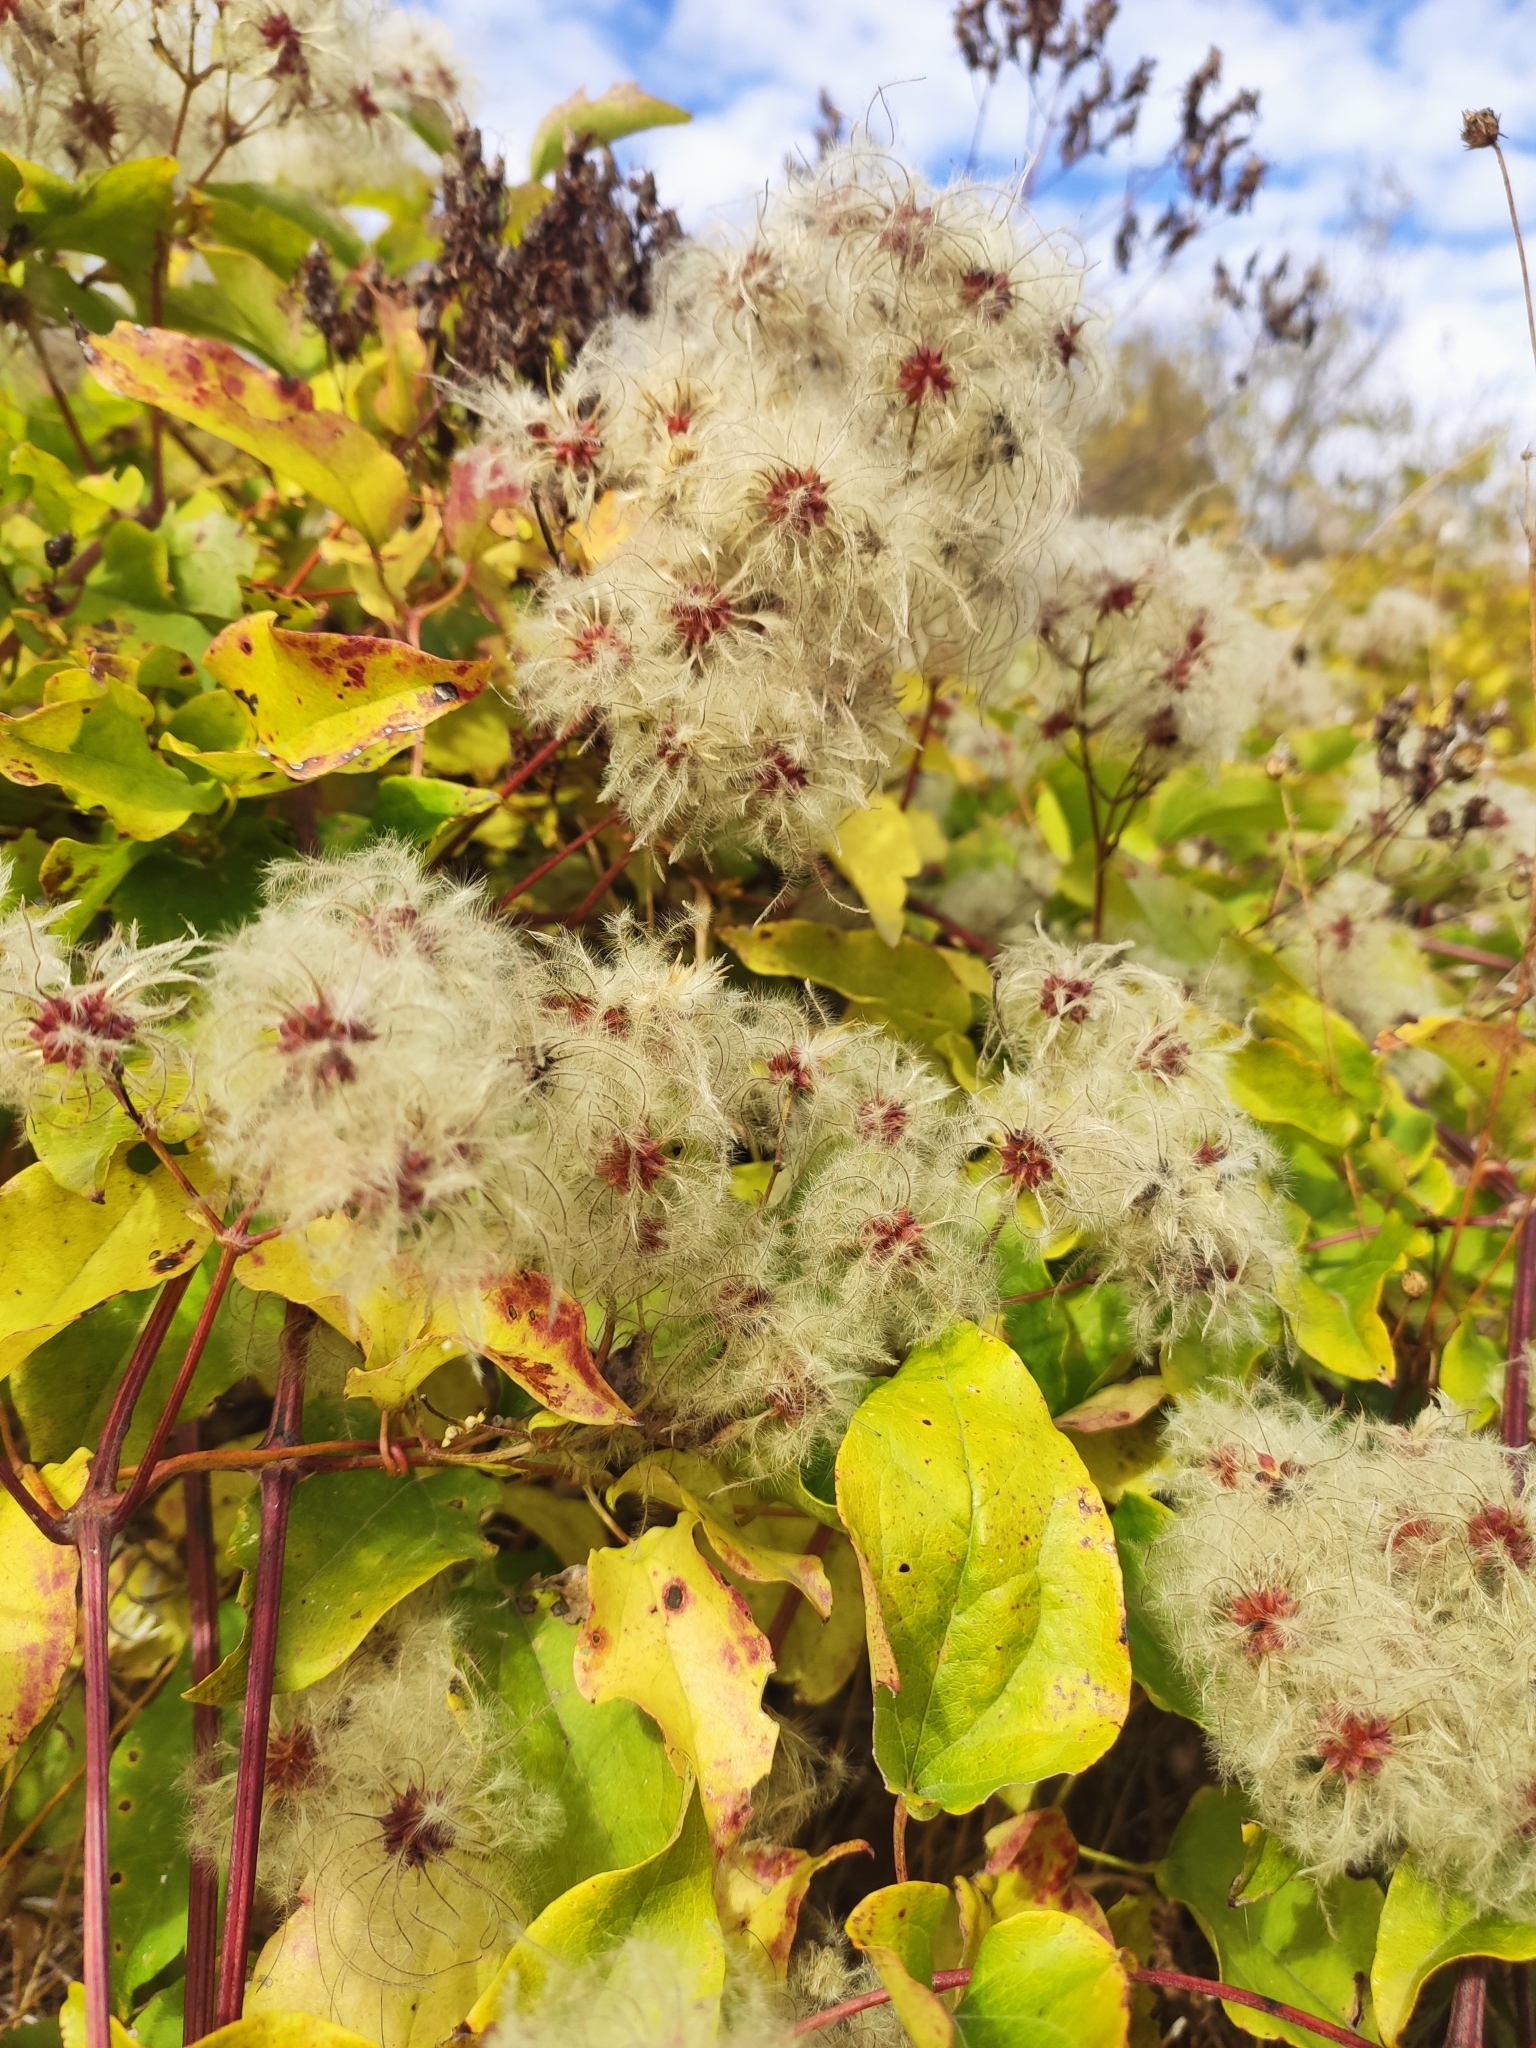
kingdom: Plantae
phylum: Tracheophyta
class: Magnoliopsida
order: Ranunculales
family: Ranunculaceae
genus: Clematis
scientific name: Clematis vitalba
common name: Evergreen clematis
